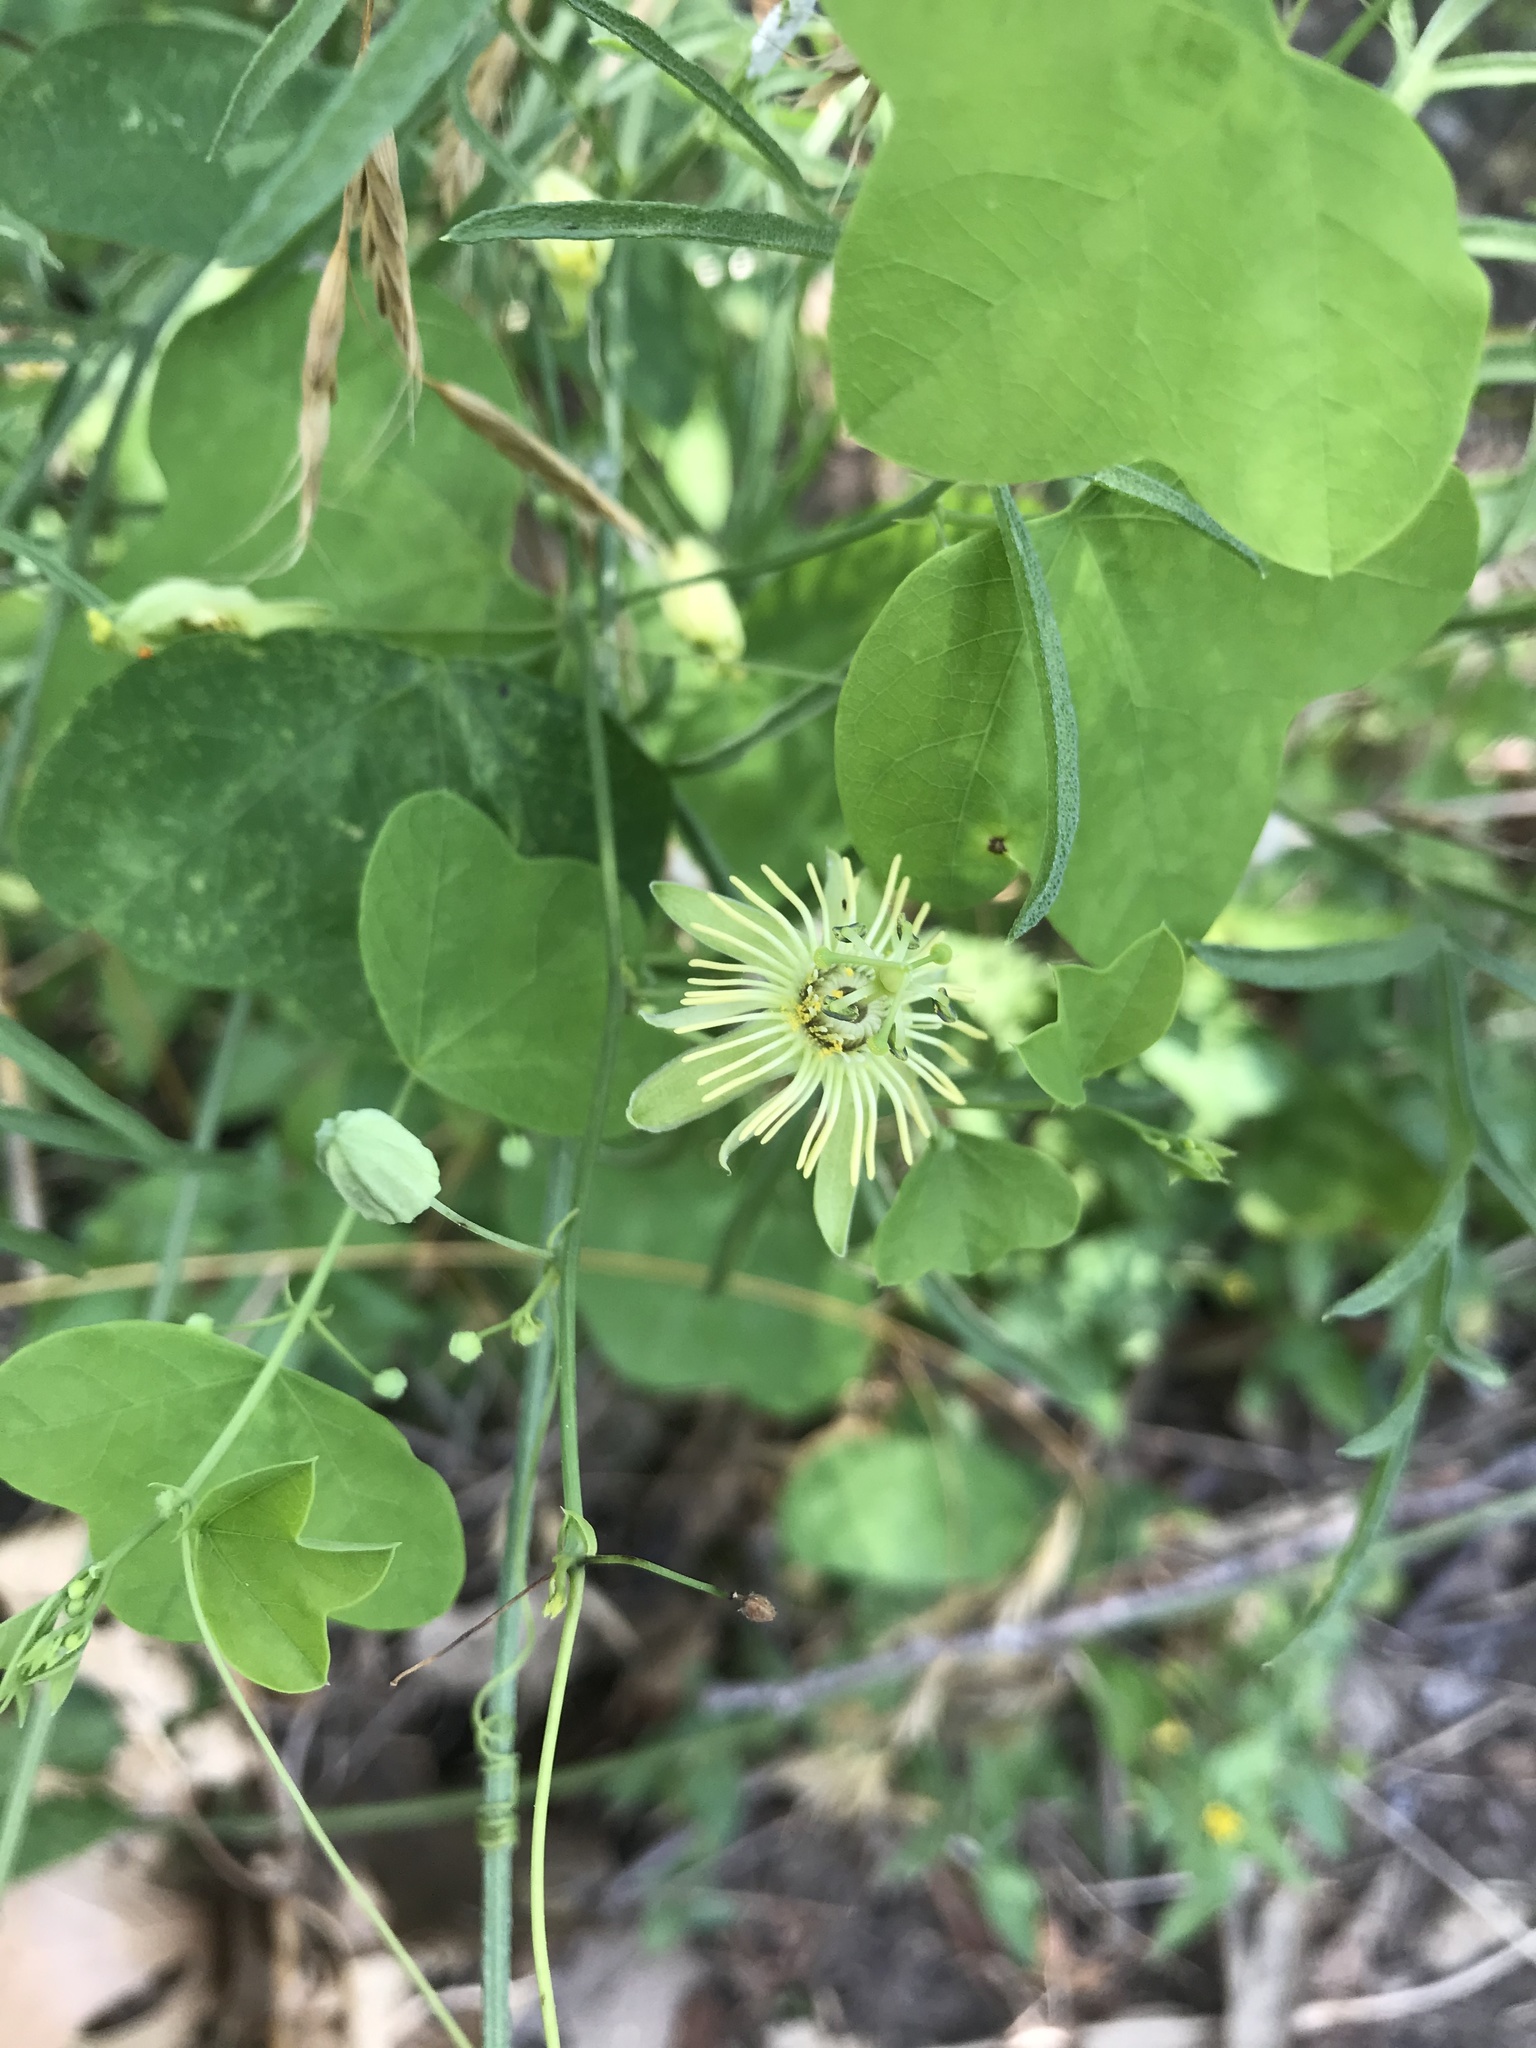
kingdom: Plantae
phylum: Tracheophyta
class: Magnoliopsida
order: Malpighiales
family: Passifloraceae
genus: Passiflora
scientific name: Passiflora lutea
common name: Yellow passionflower
